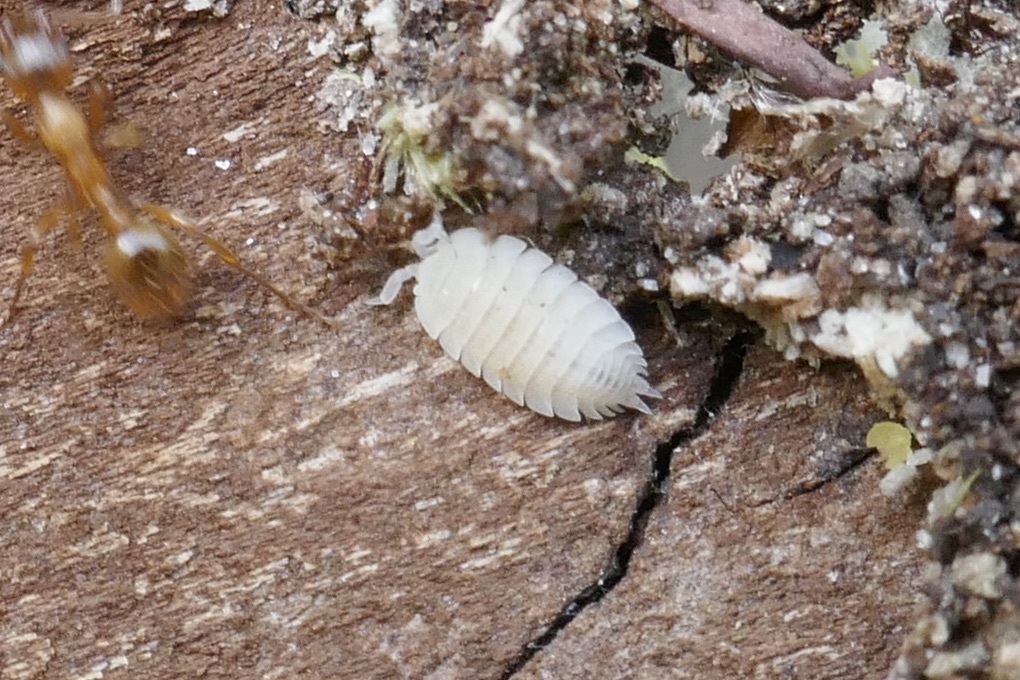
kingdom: Animalia
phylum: Arthropoda
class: Malacostraca
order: Isopoda
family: Platyarthridae
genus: Platyarthrus
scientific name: Platyarthrus hoffmannseggii
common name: Ant woodlouse
